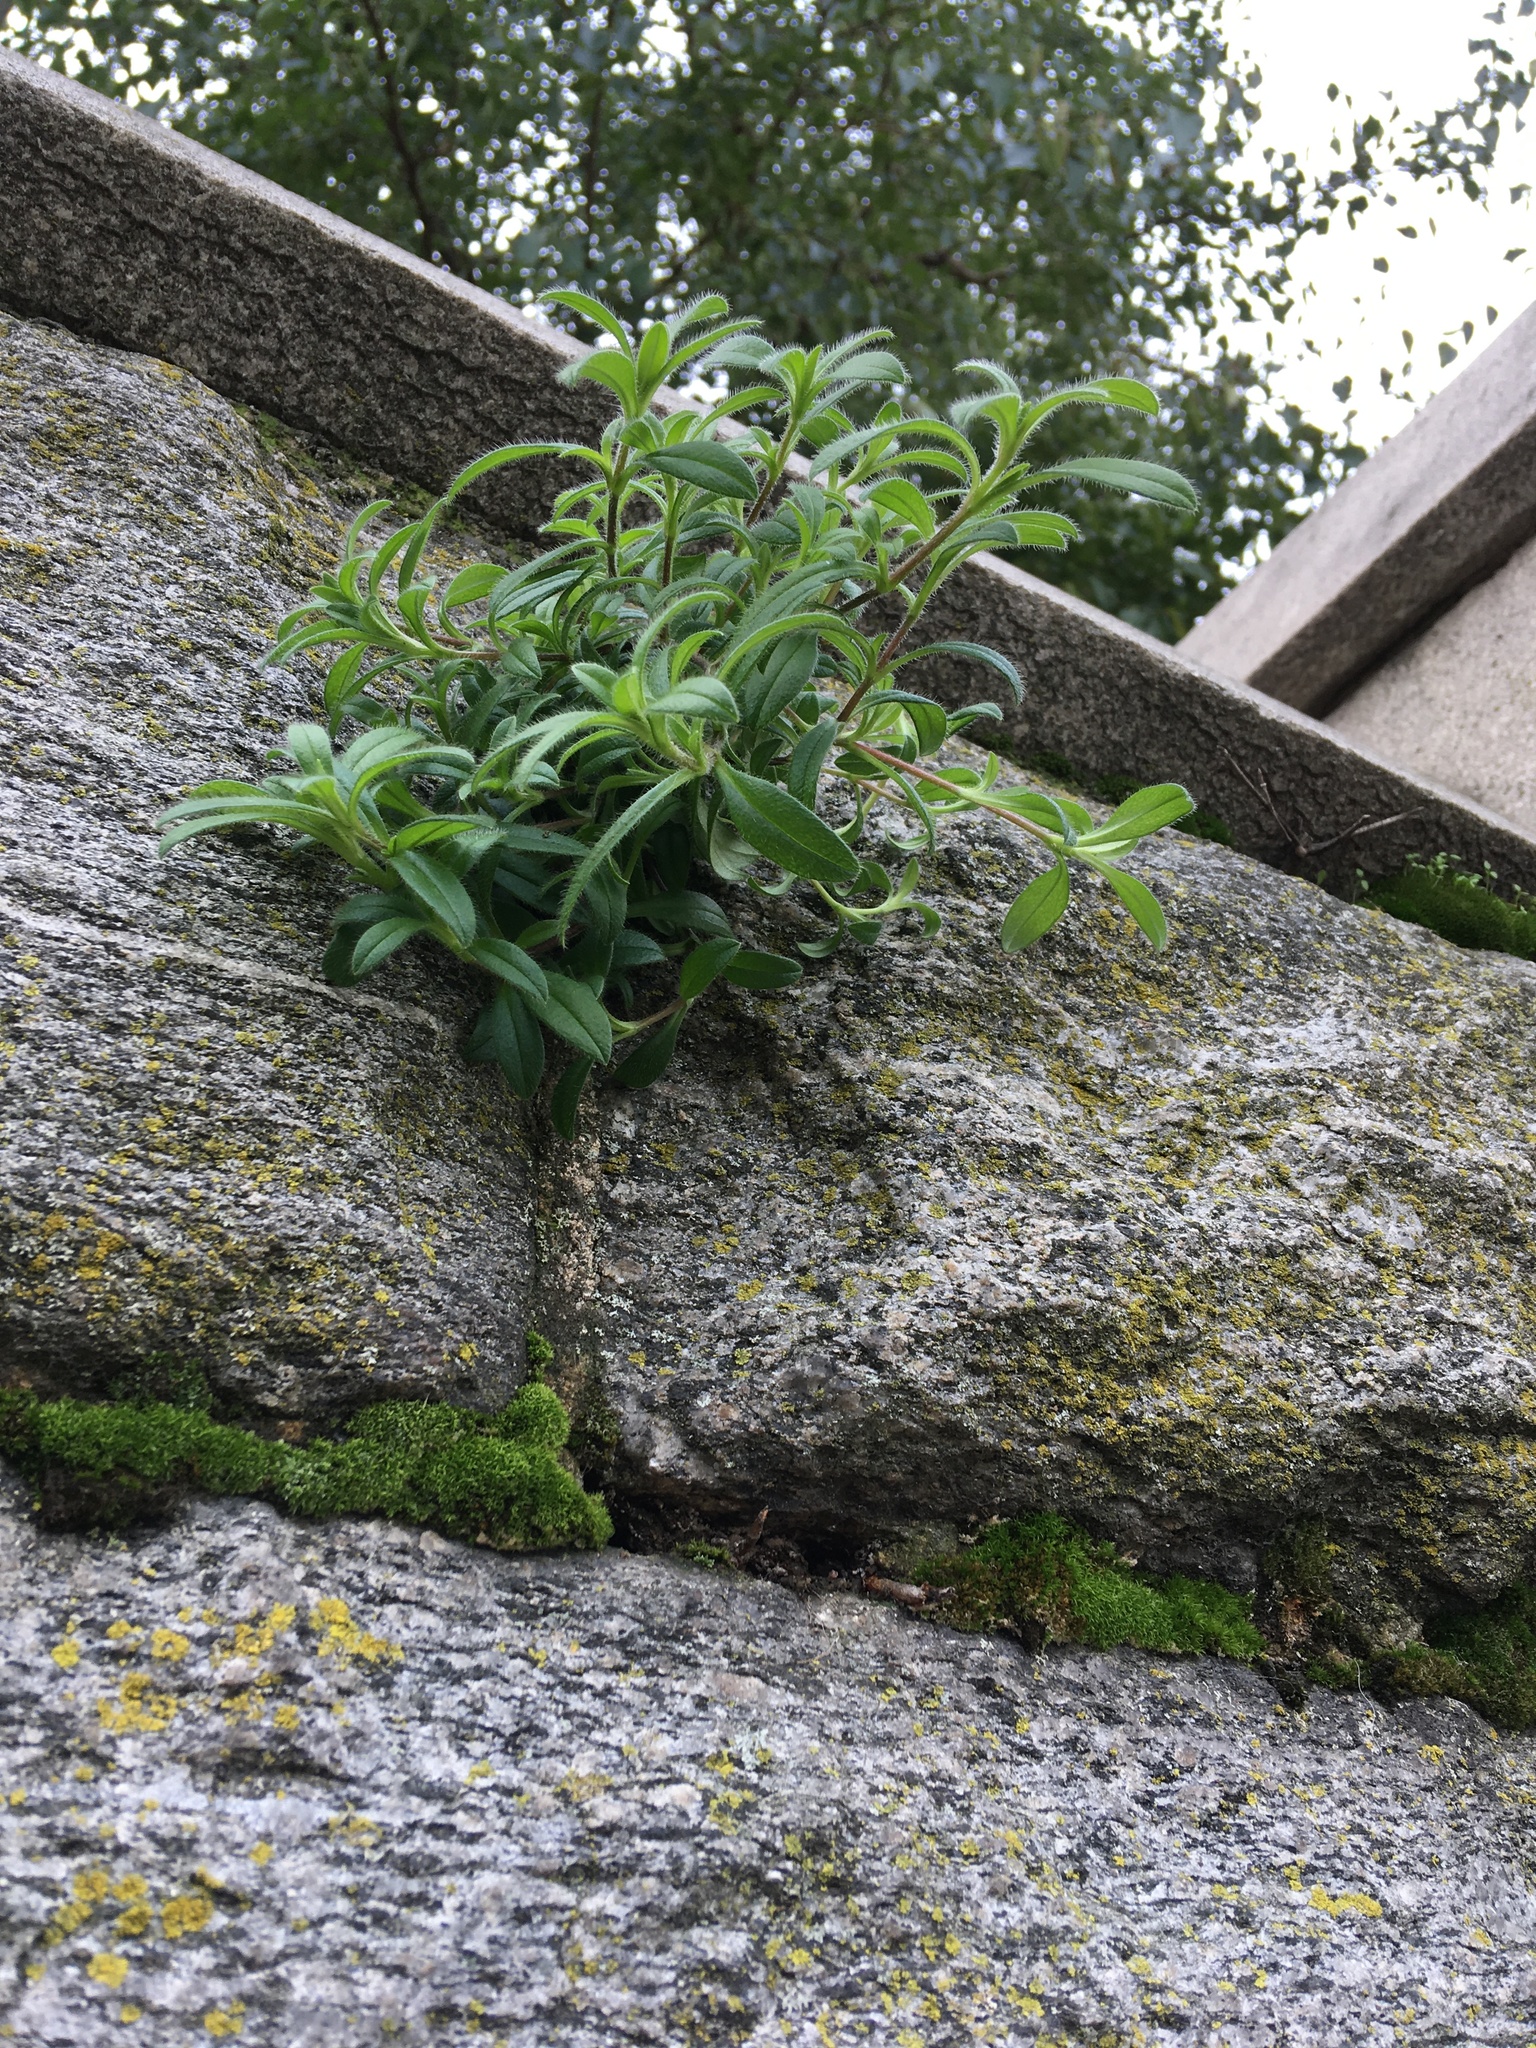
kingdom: Plantae
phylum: Tracheophyta
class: Magnoliopsida
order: Caryophyllales
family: Caryophyllaceae
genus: Cerastium
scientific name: Cerastium fontanum
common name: Common mouse-ear
